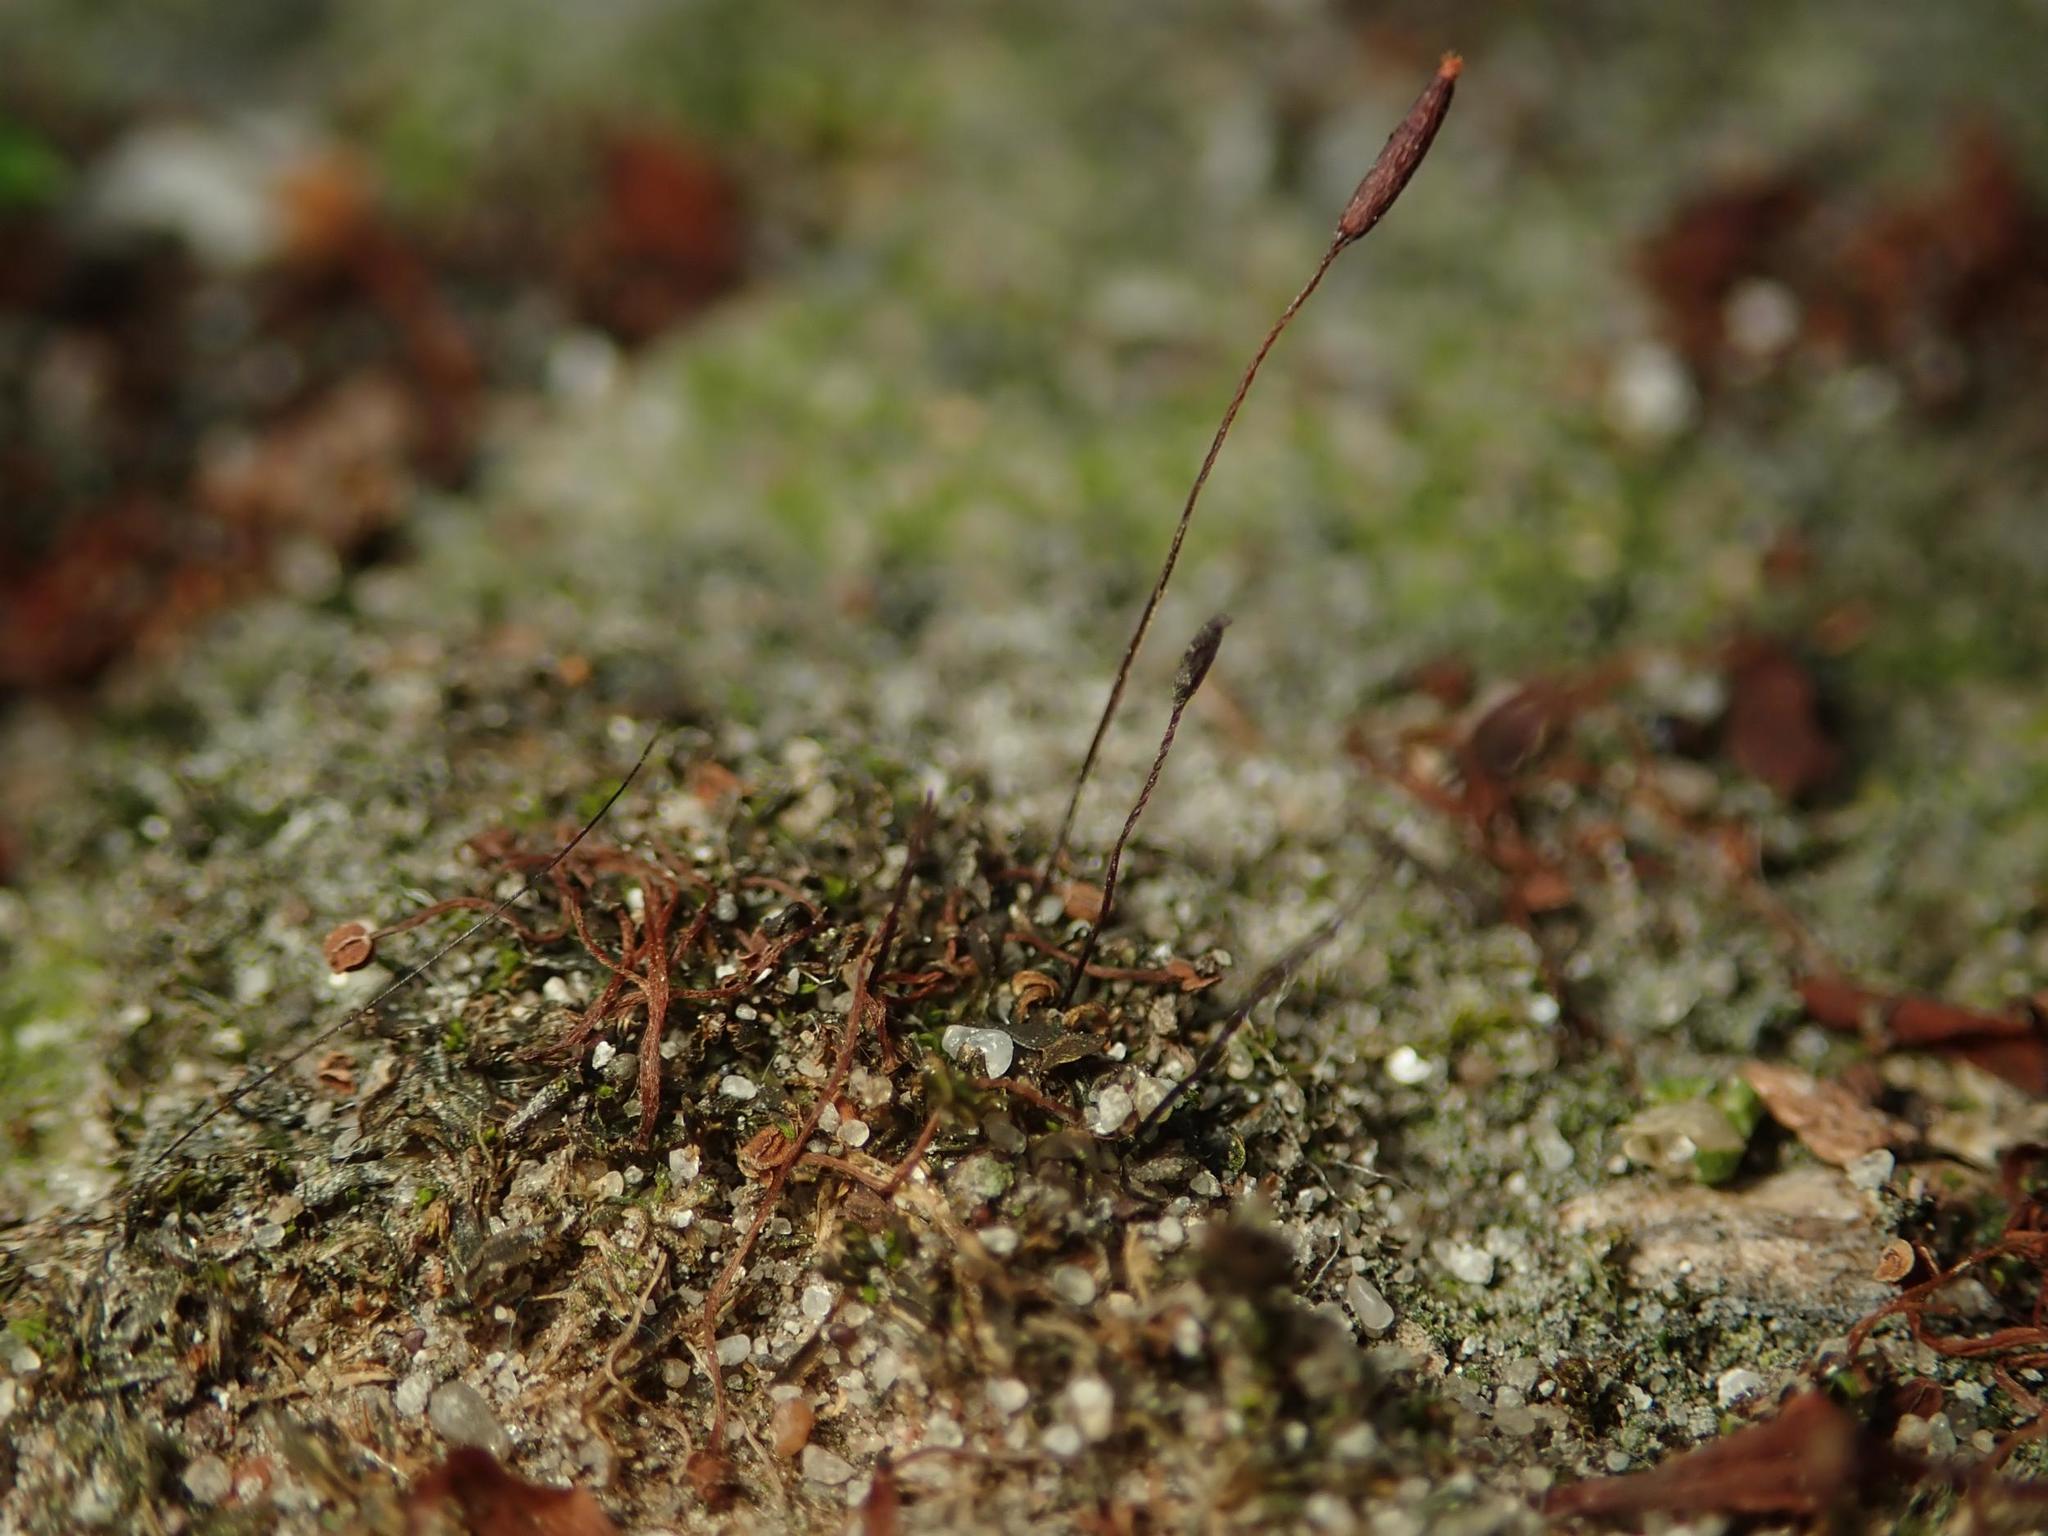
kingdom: Plantae
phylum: Bryophyta
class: Bryopsida
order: Pottiales
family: Pottiaceae
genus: Tortula
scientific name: Tortula muralis
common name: Wall screw-moss
